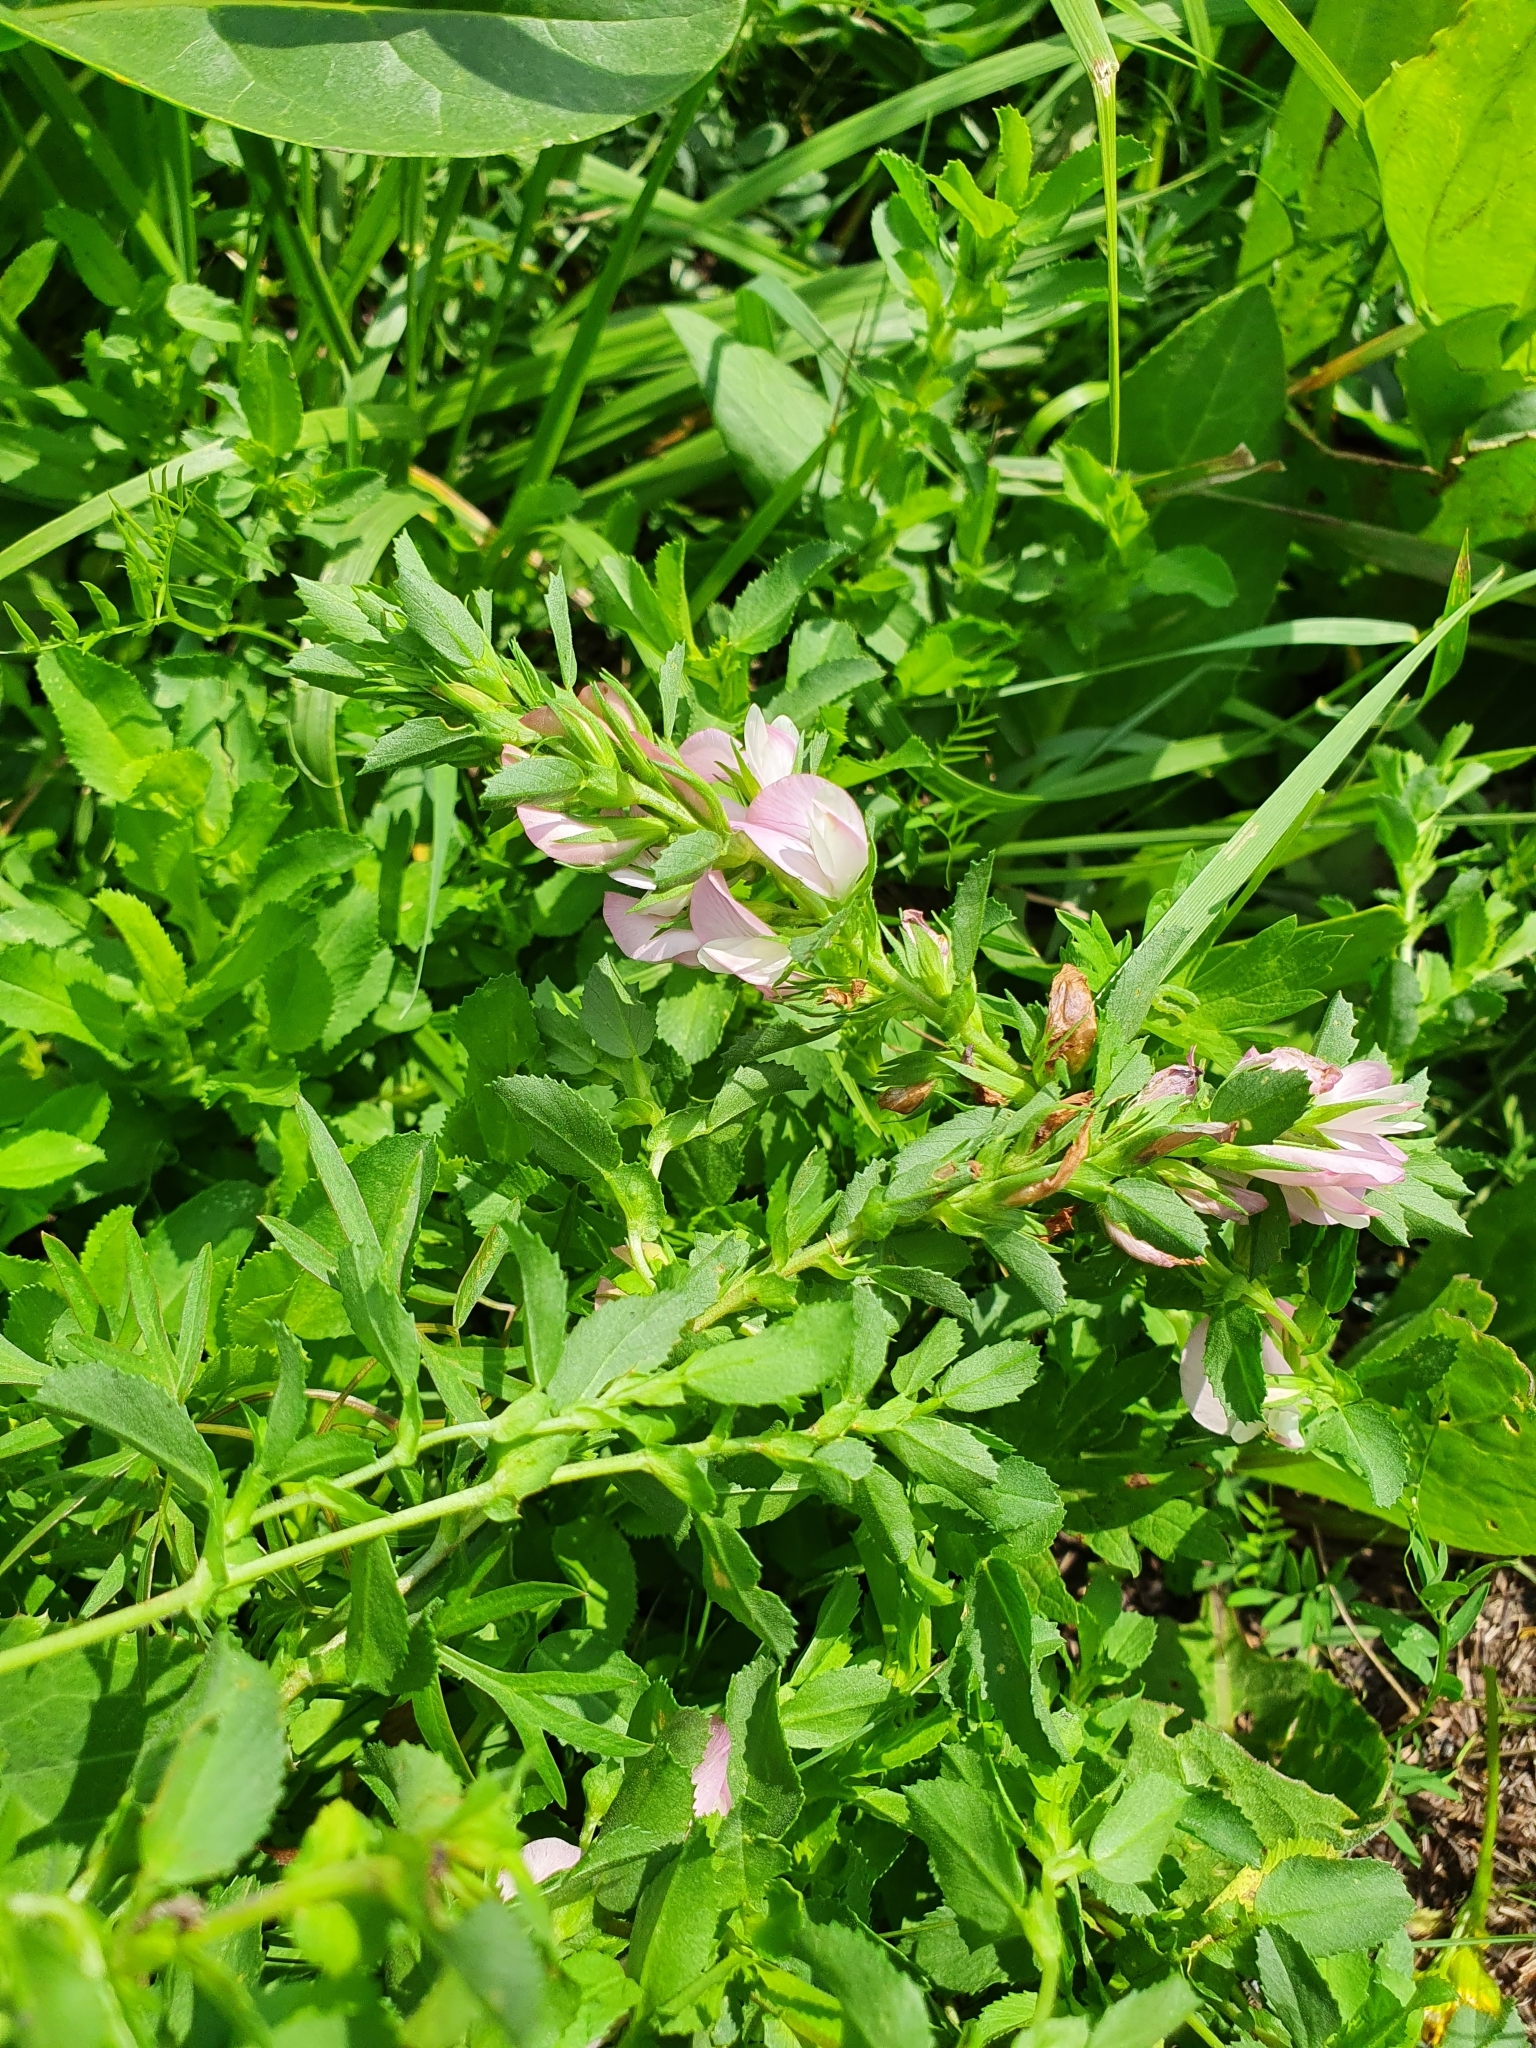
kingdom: Plantae
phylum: Tracheophyta
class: Magnoliopsida
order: Fabales
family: Fabaceae
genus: Ononis
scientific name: Ononis arvensis
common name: Field restharrow
